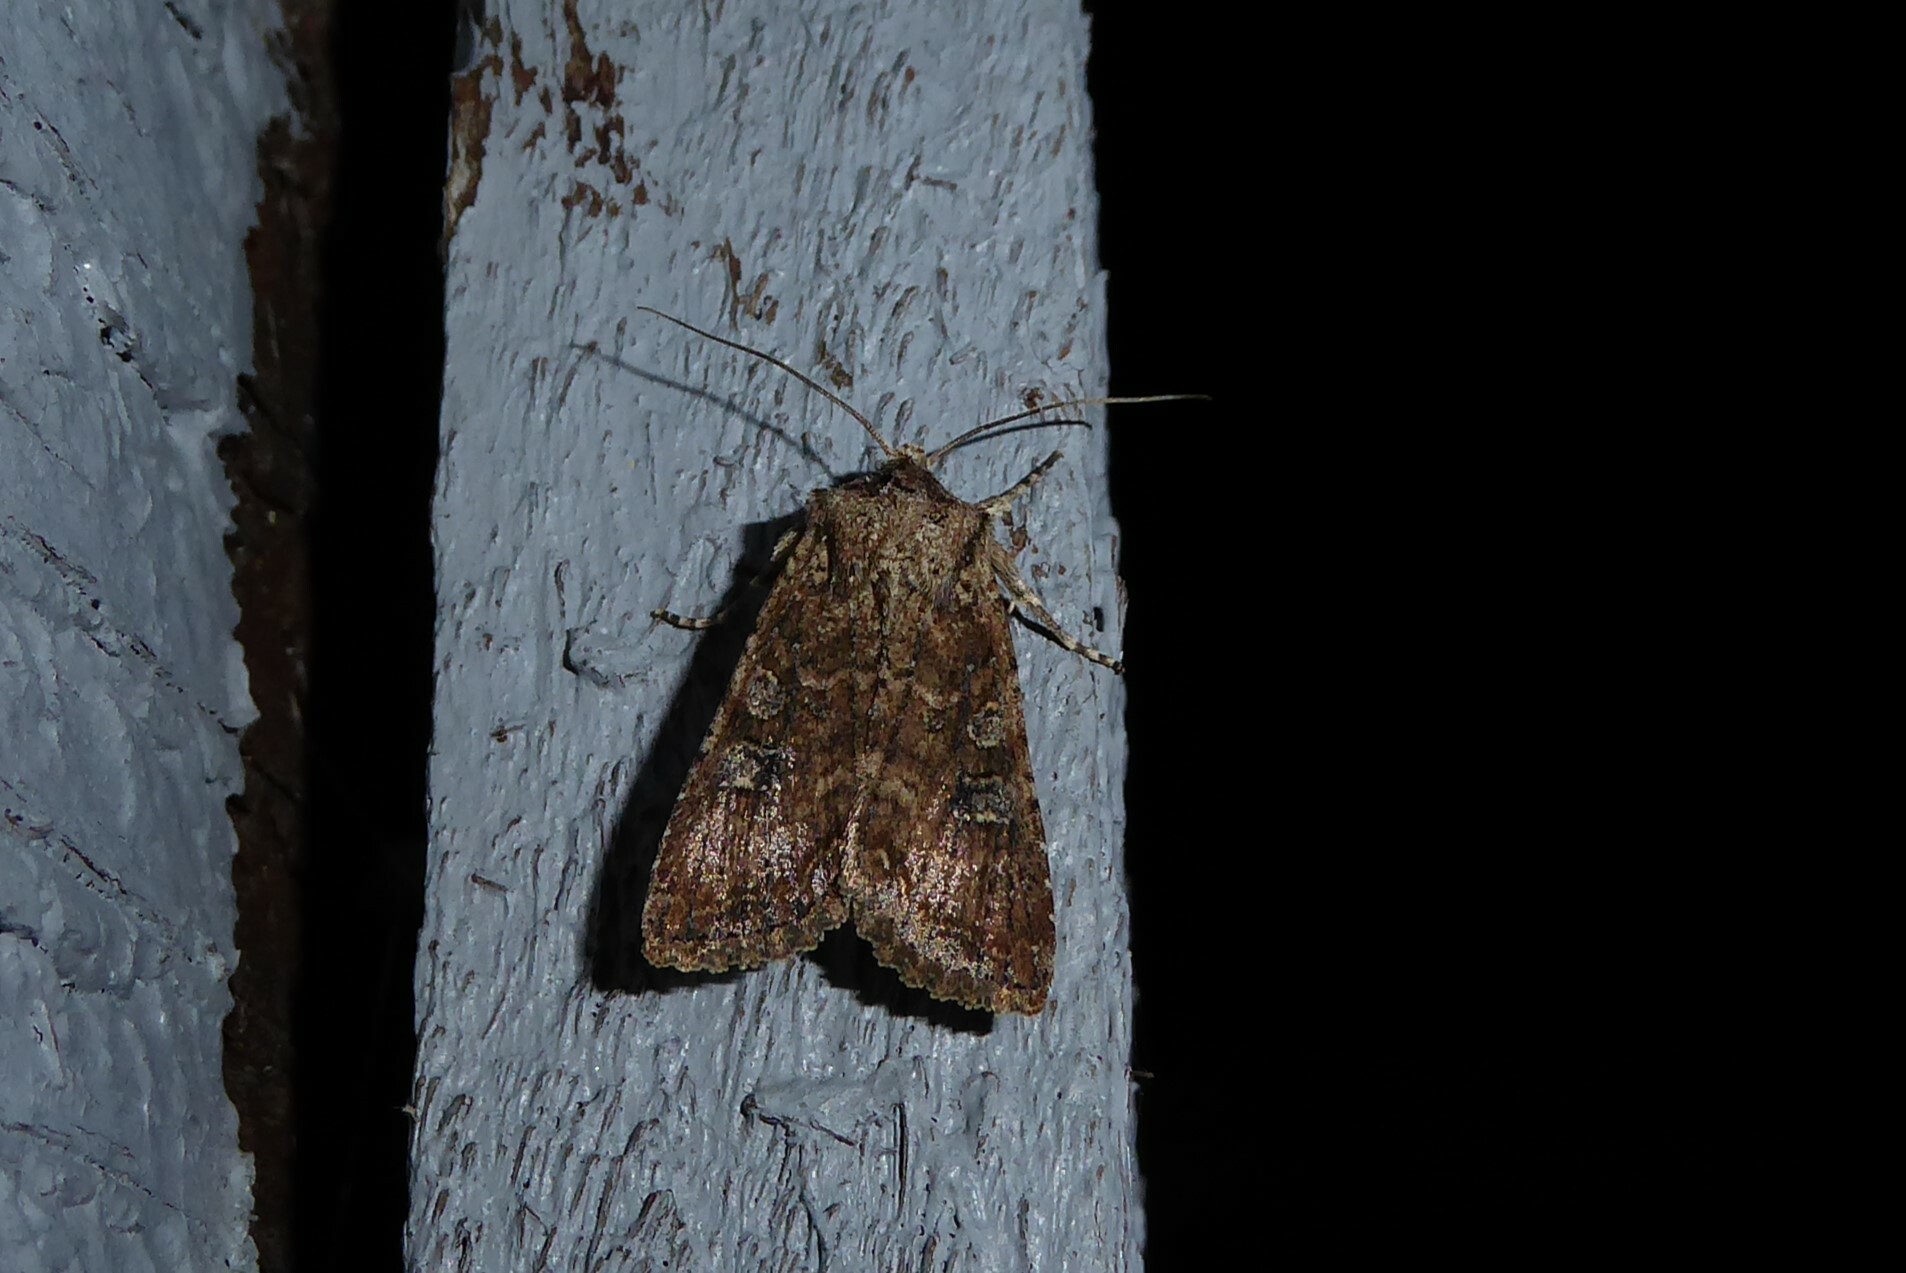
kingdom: Animalia
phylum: Arthropoda
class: Insecta
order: Lepidoptera
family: Noctuidae
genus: Ichneutica
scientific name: Ichneutica morosa
